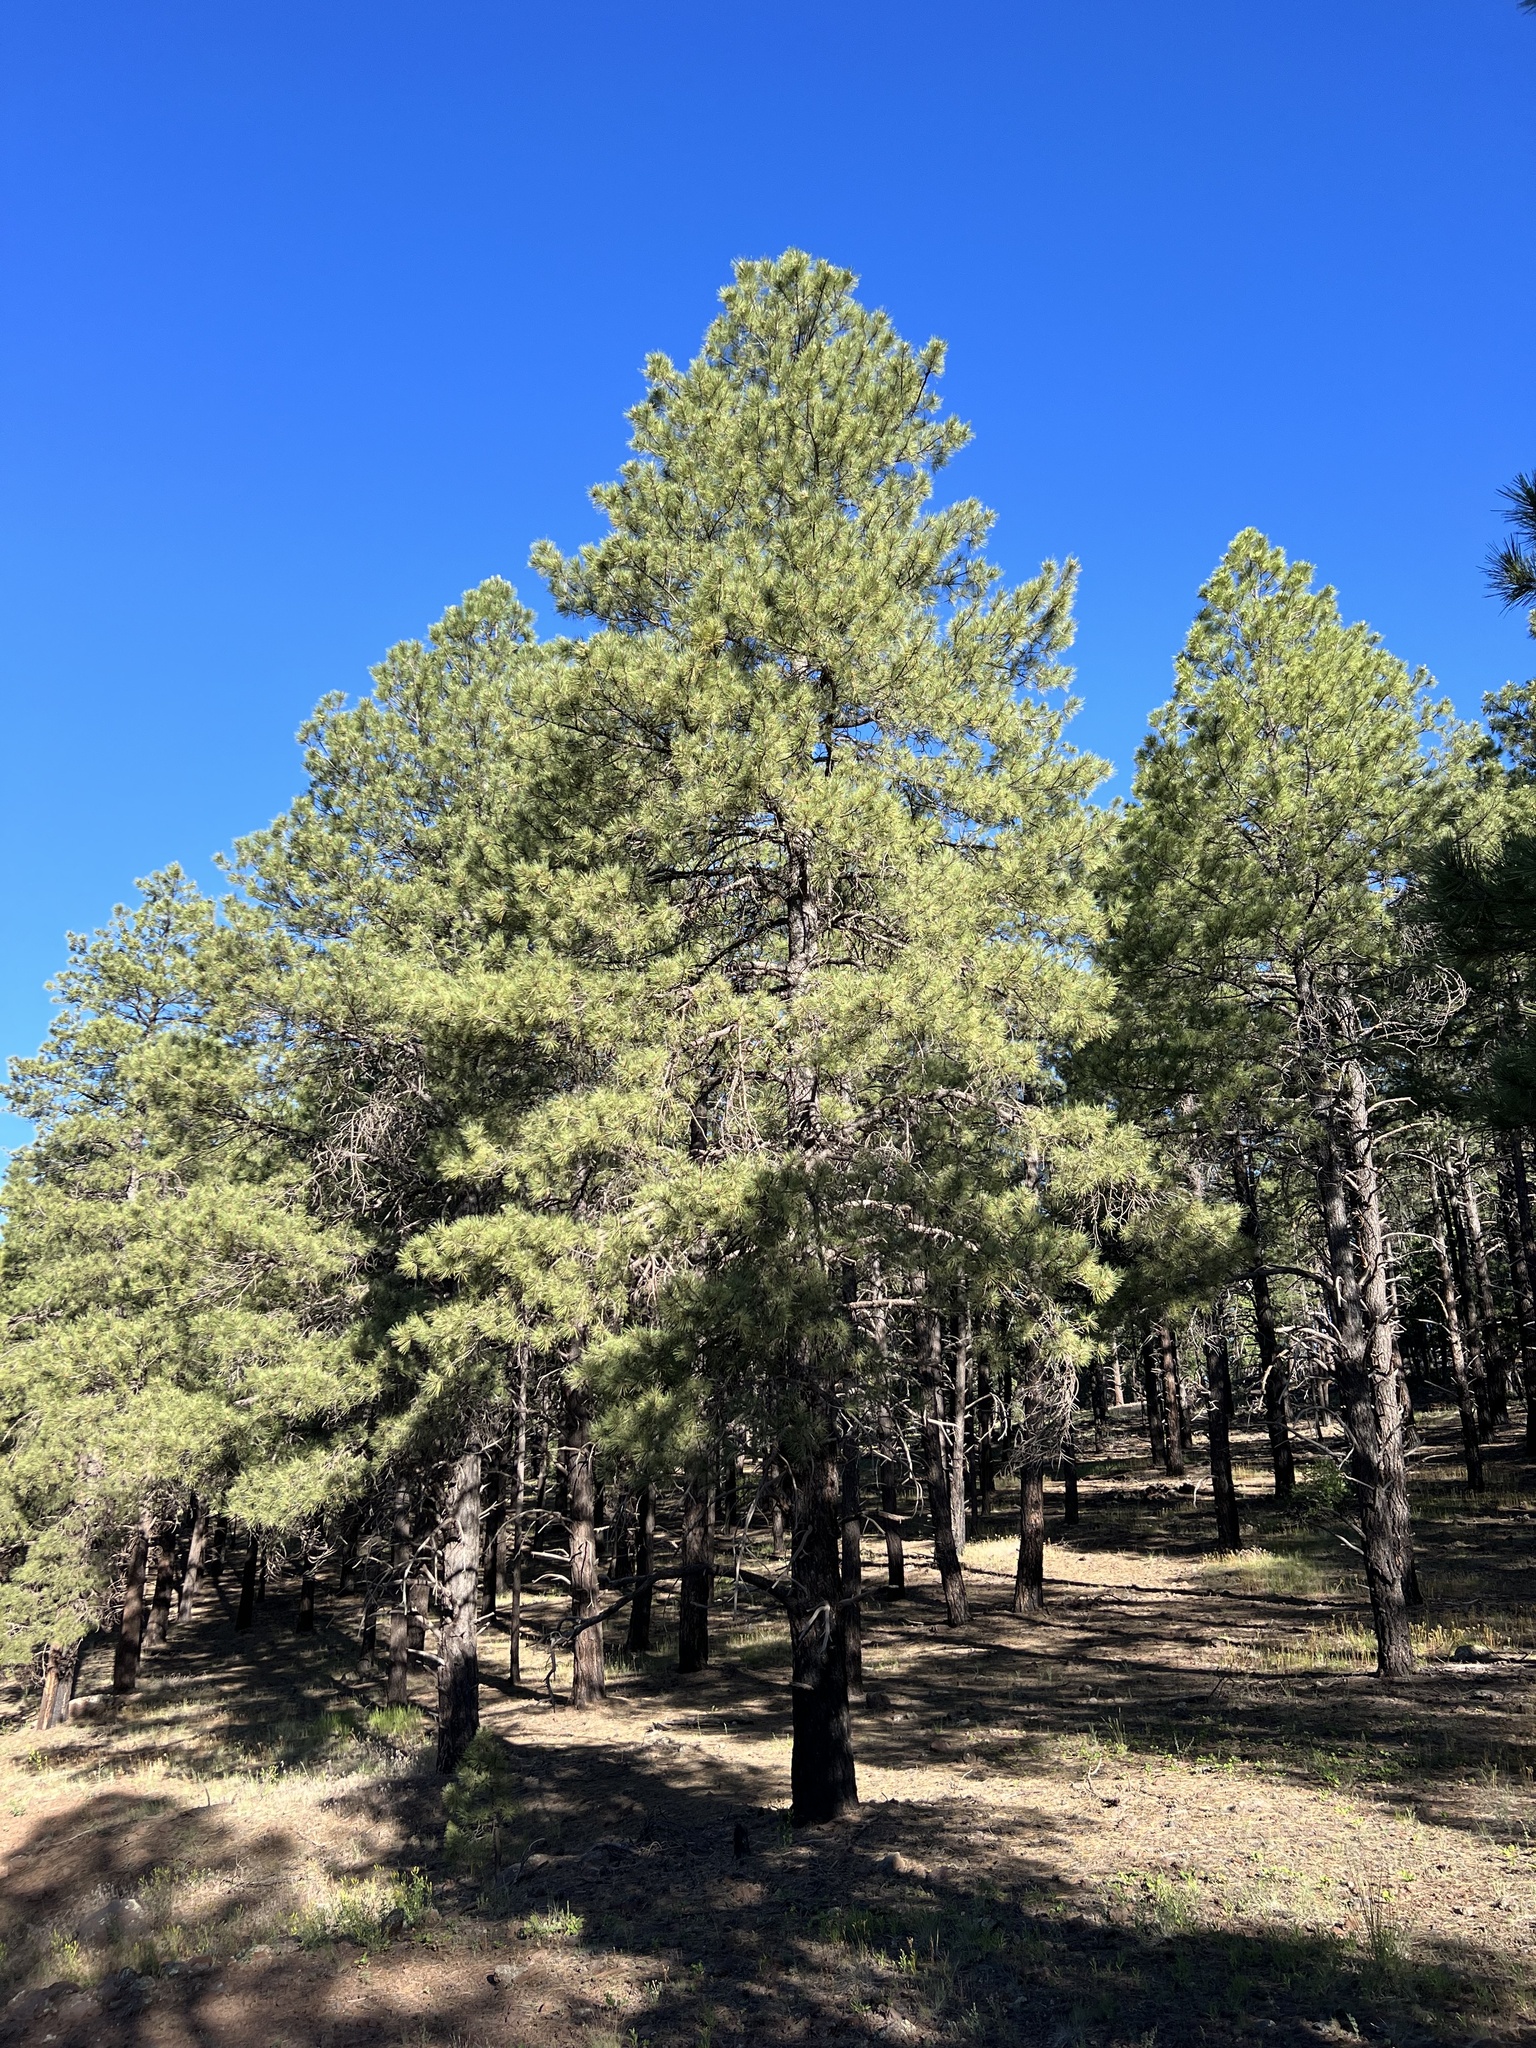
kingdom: Plantae
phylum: Tracheophyta
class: Pinopsida
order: Pinales
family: Pinaceae
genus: Pinus
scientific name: Pinus ponderosa
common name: Western yellow-pine
